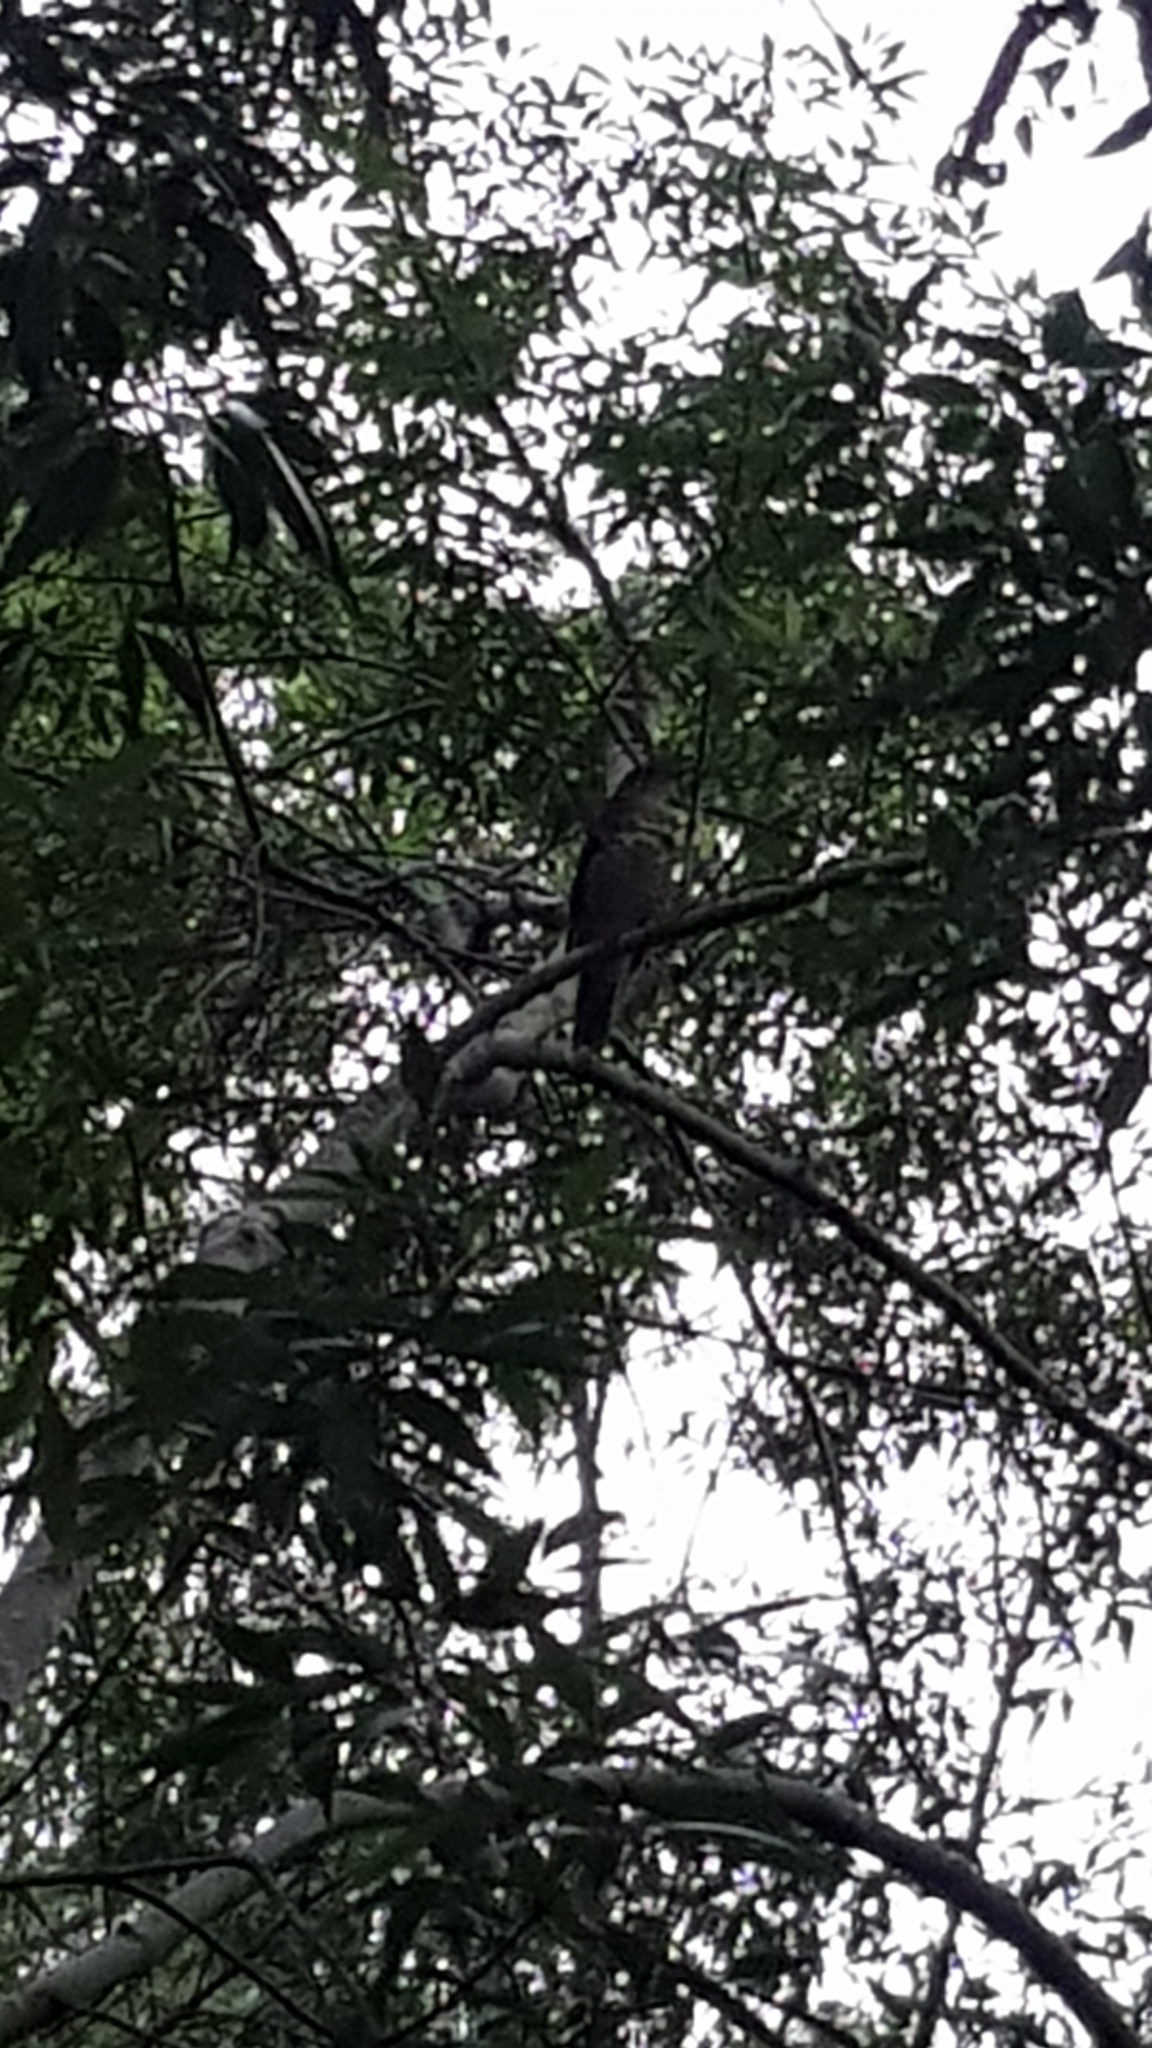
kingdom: Animalia
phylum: Chordata
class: Aves
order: Passeriformes
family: Turdidae
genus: Zoothera
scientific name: Zoothera lunulata
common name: Bassian thrush
